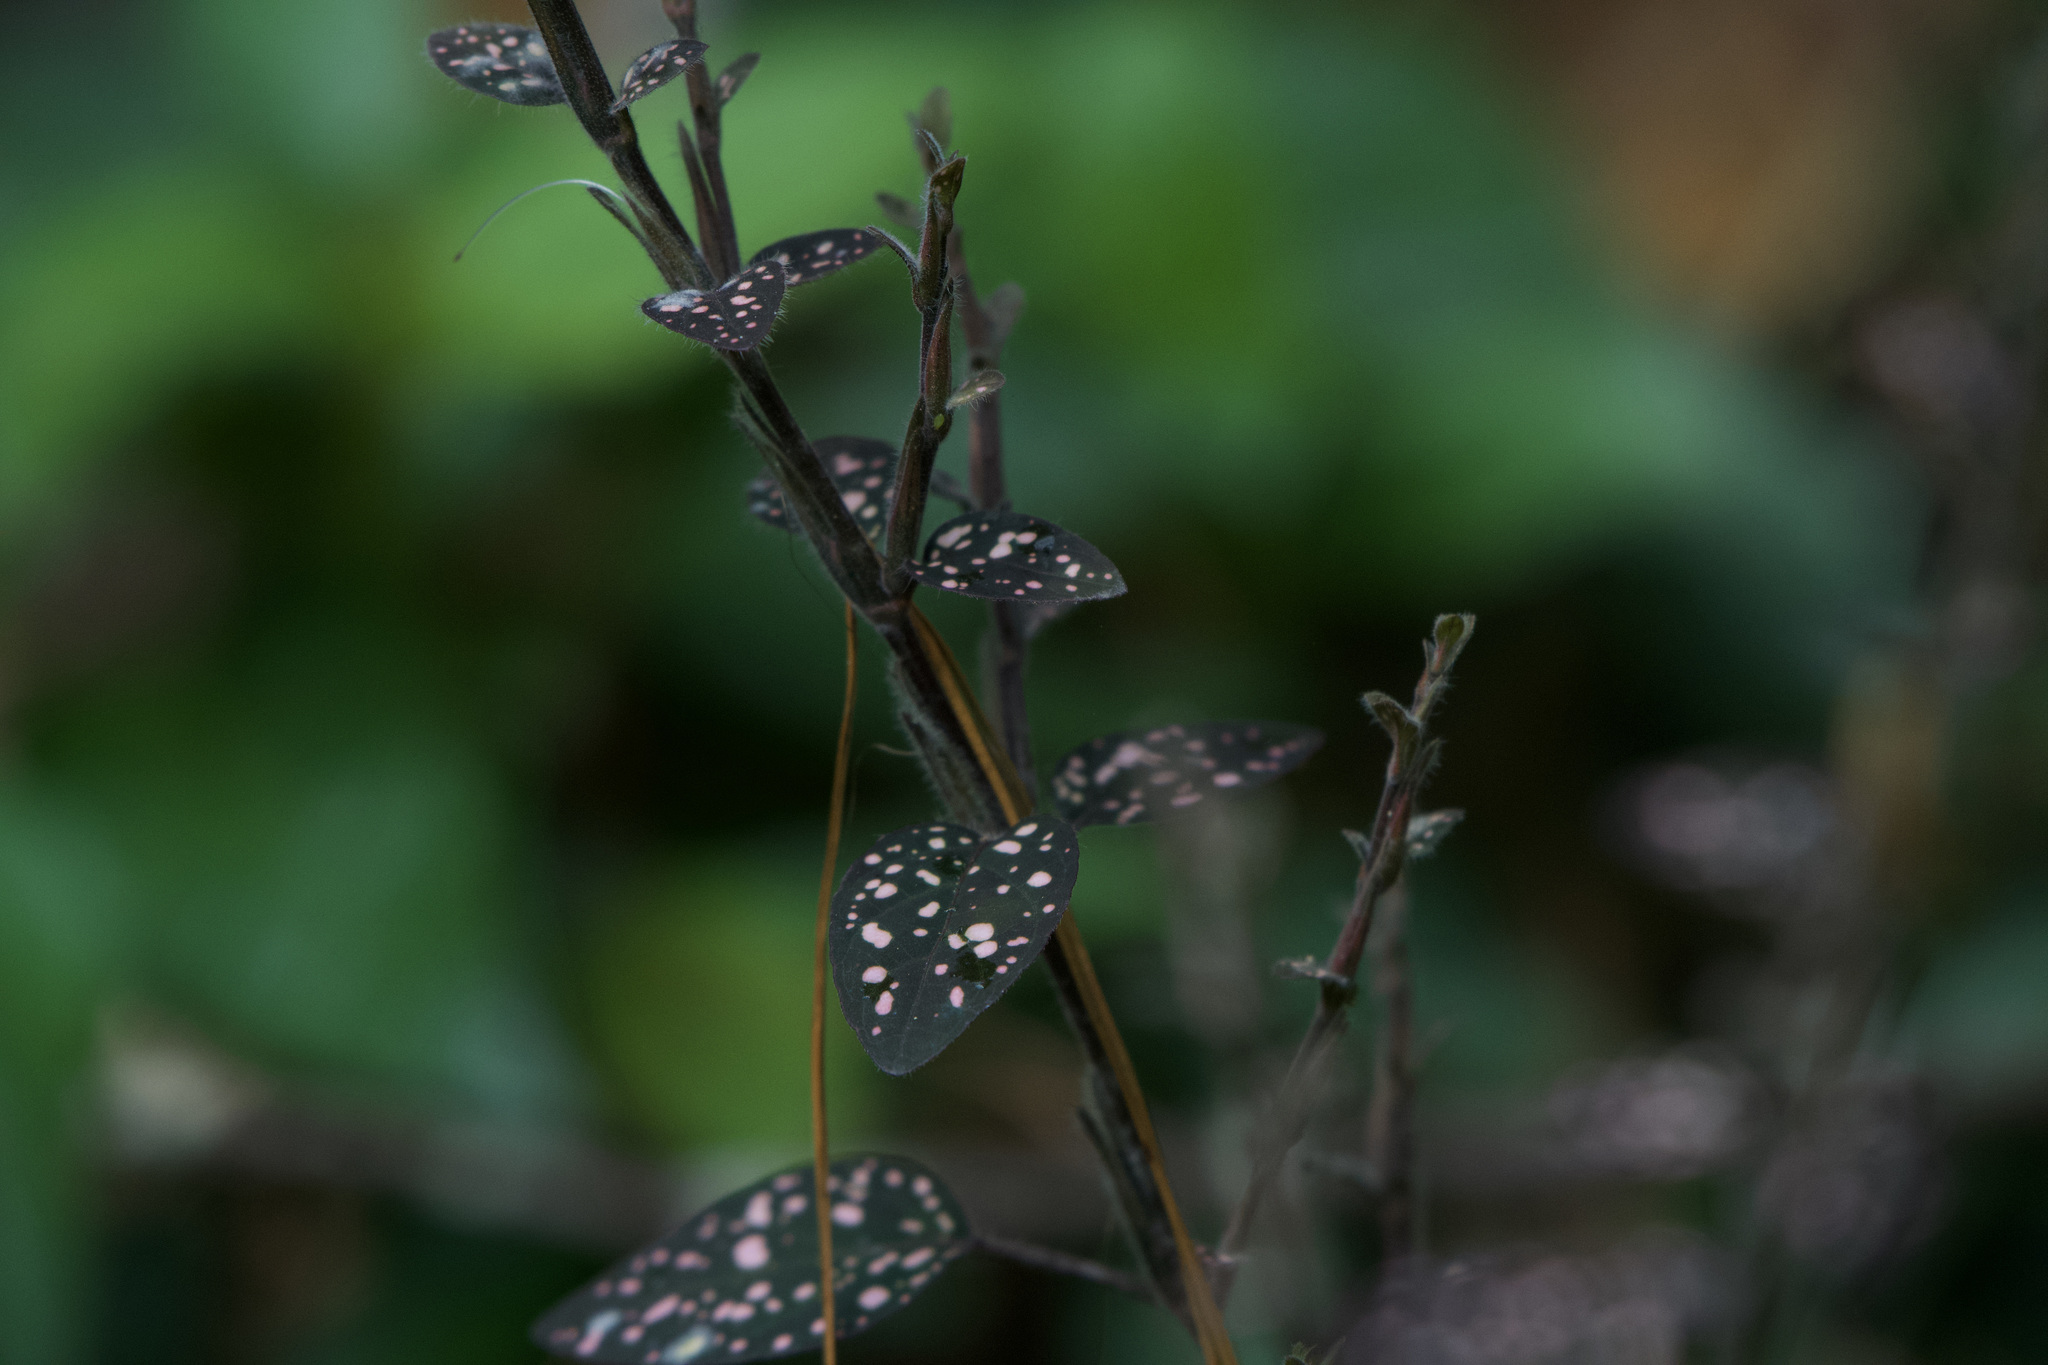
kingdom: Plantae
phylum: Tracheophyta
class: Magnoliopsida
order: Lamiales
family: Acanthaceae
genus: Hypoestes
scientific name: Hypoestes phyllostachya
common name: Polkadot-plant
